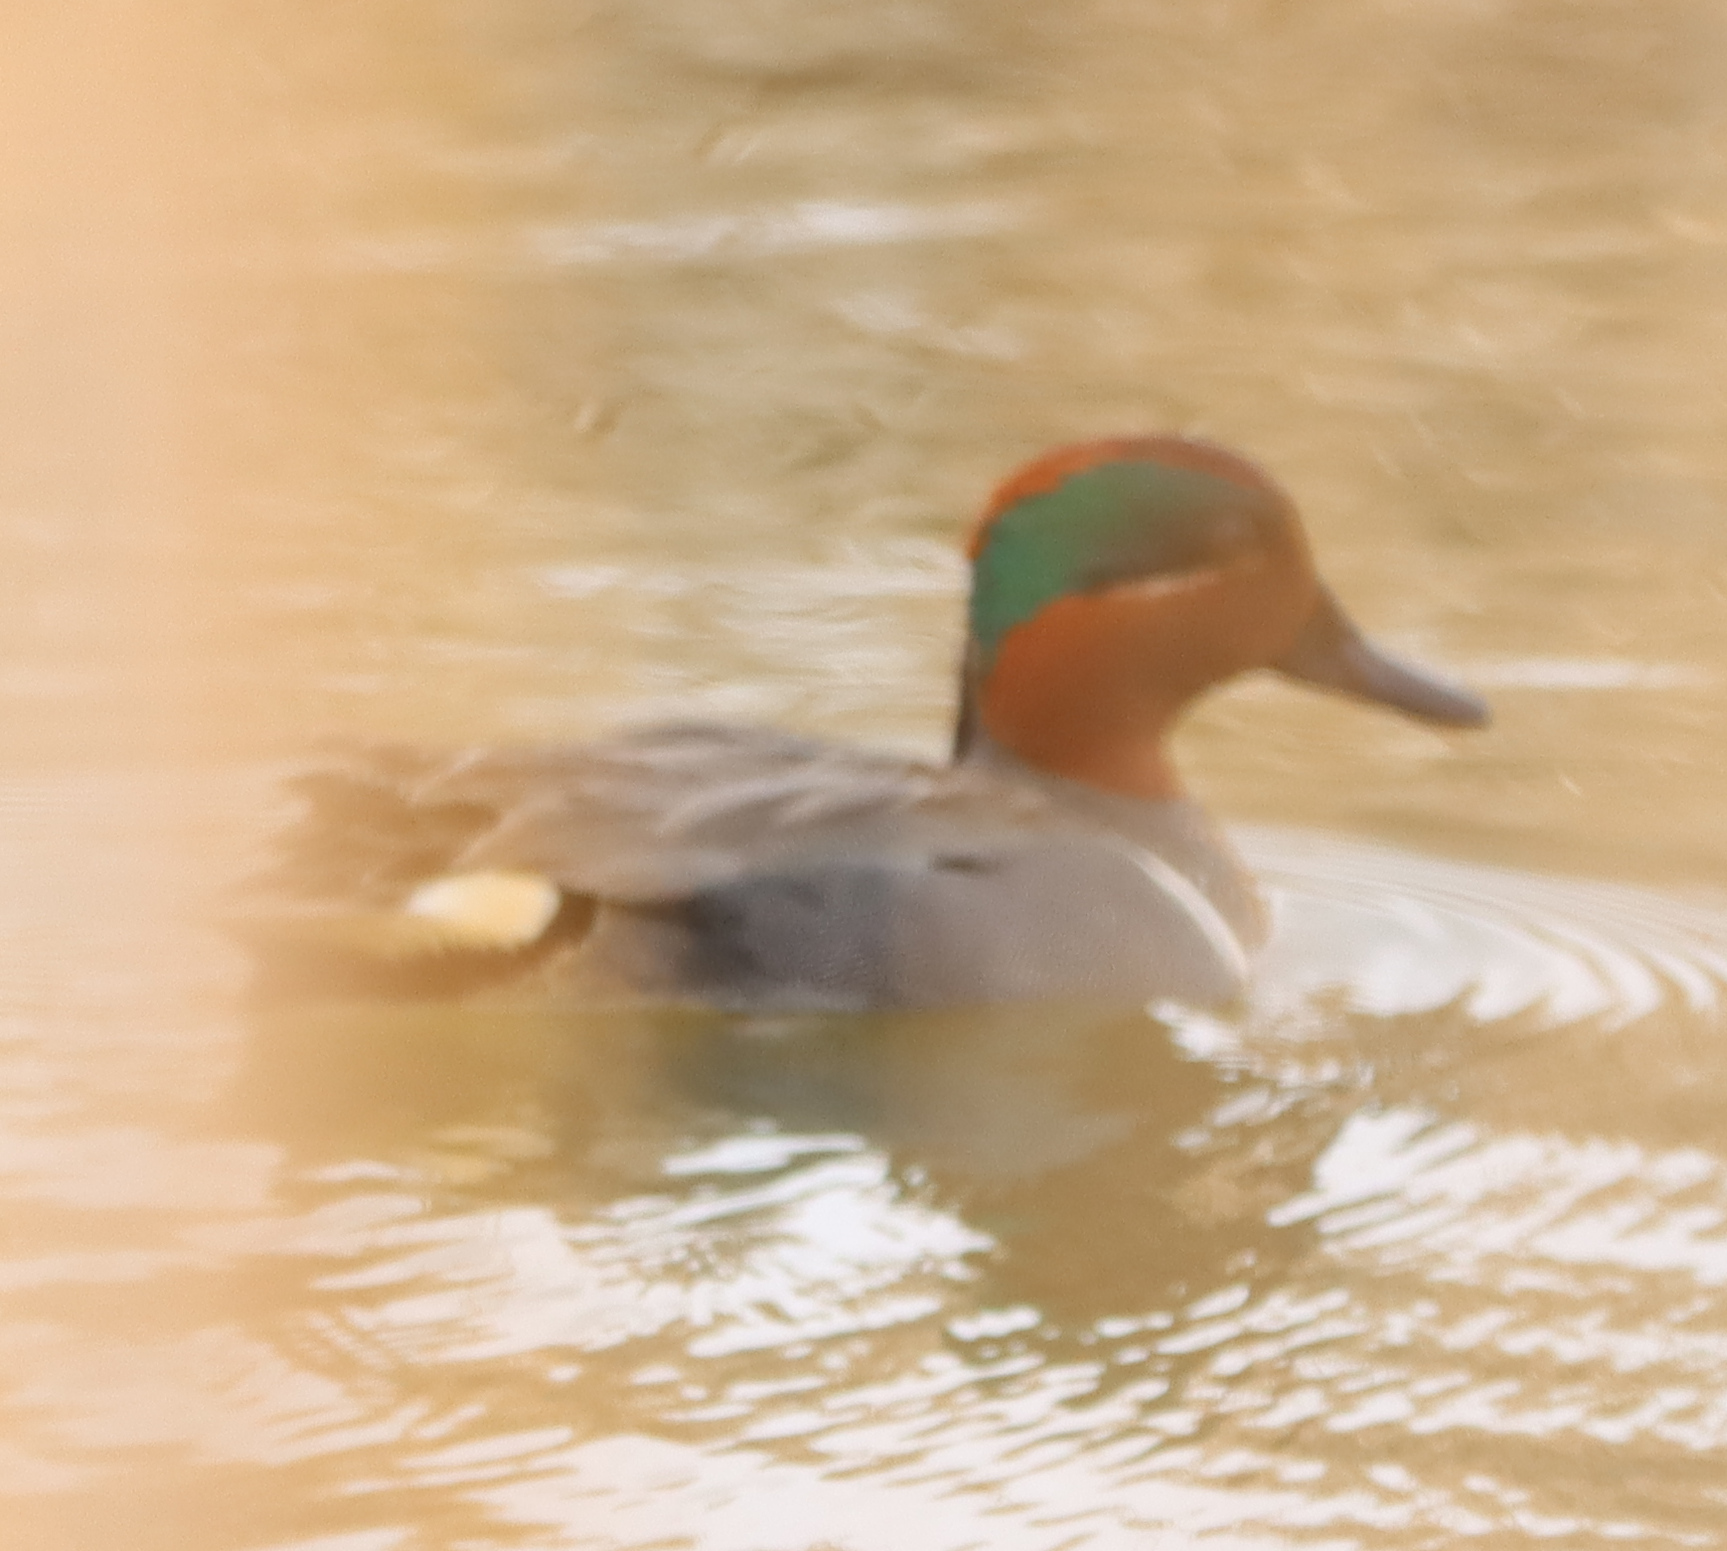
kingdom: Animalia
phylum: Chordata
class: Aves
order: Anseriformes
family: Anatidae
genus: Anas
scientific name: Anas crecca
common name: Eurasian teal
